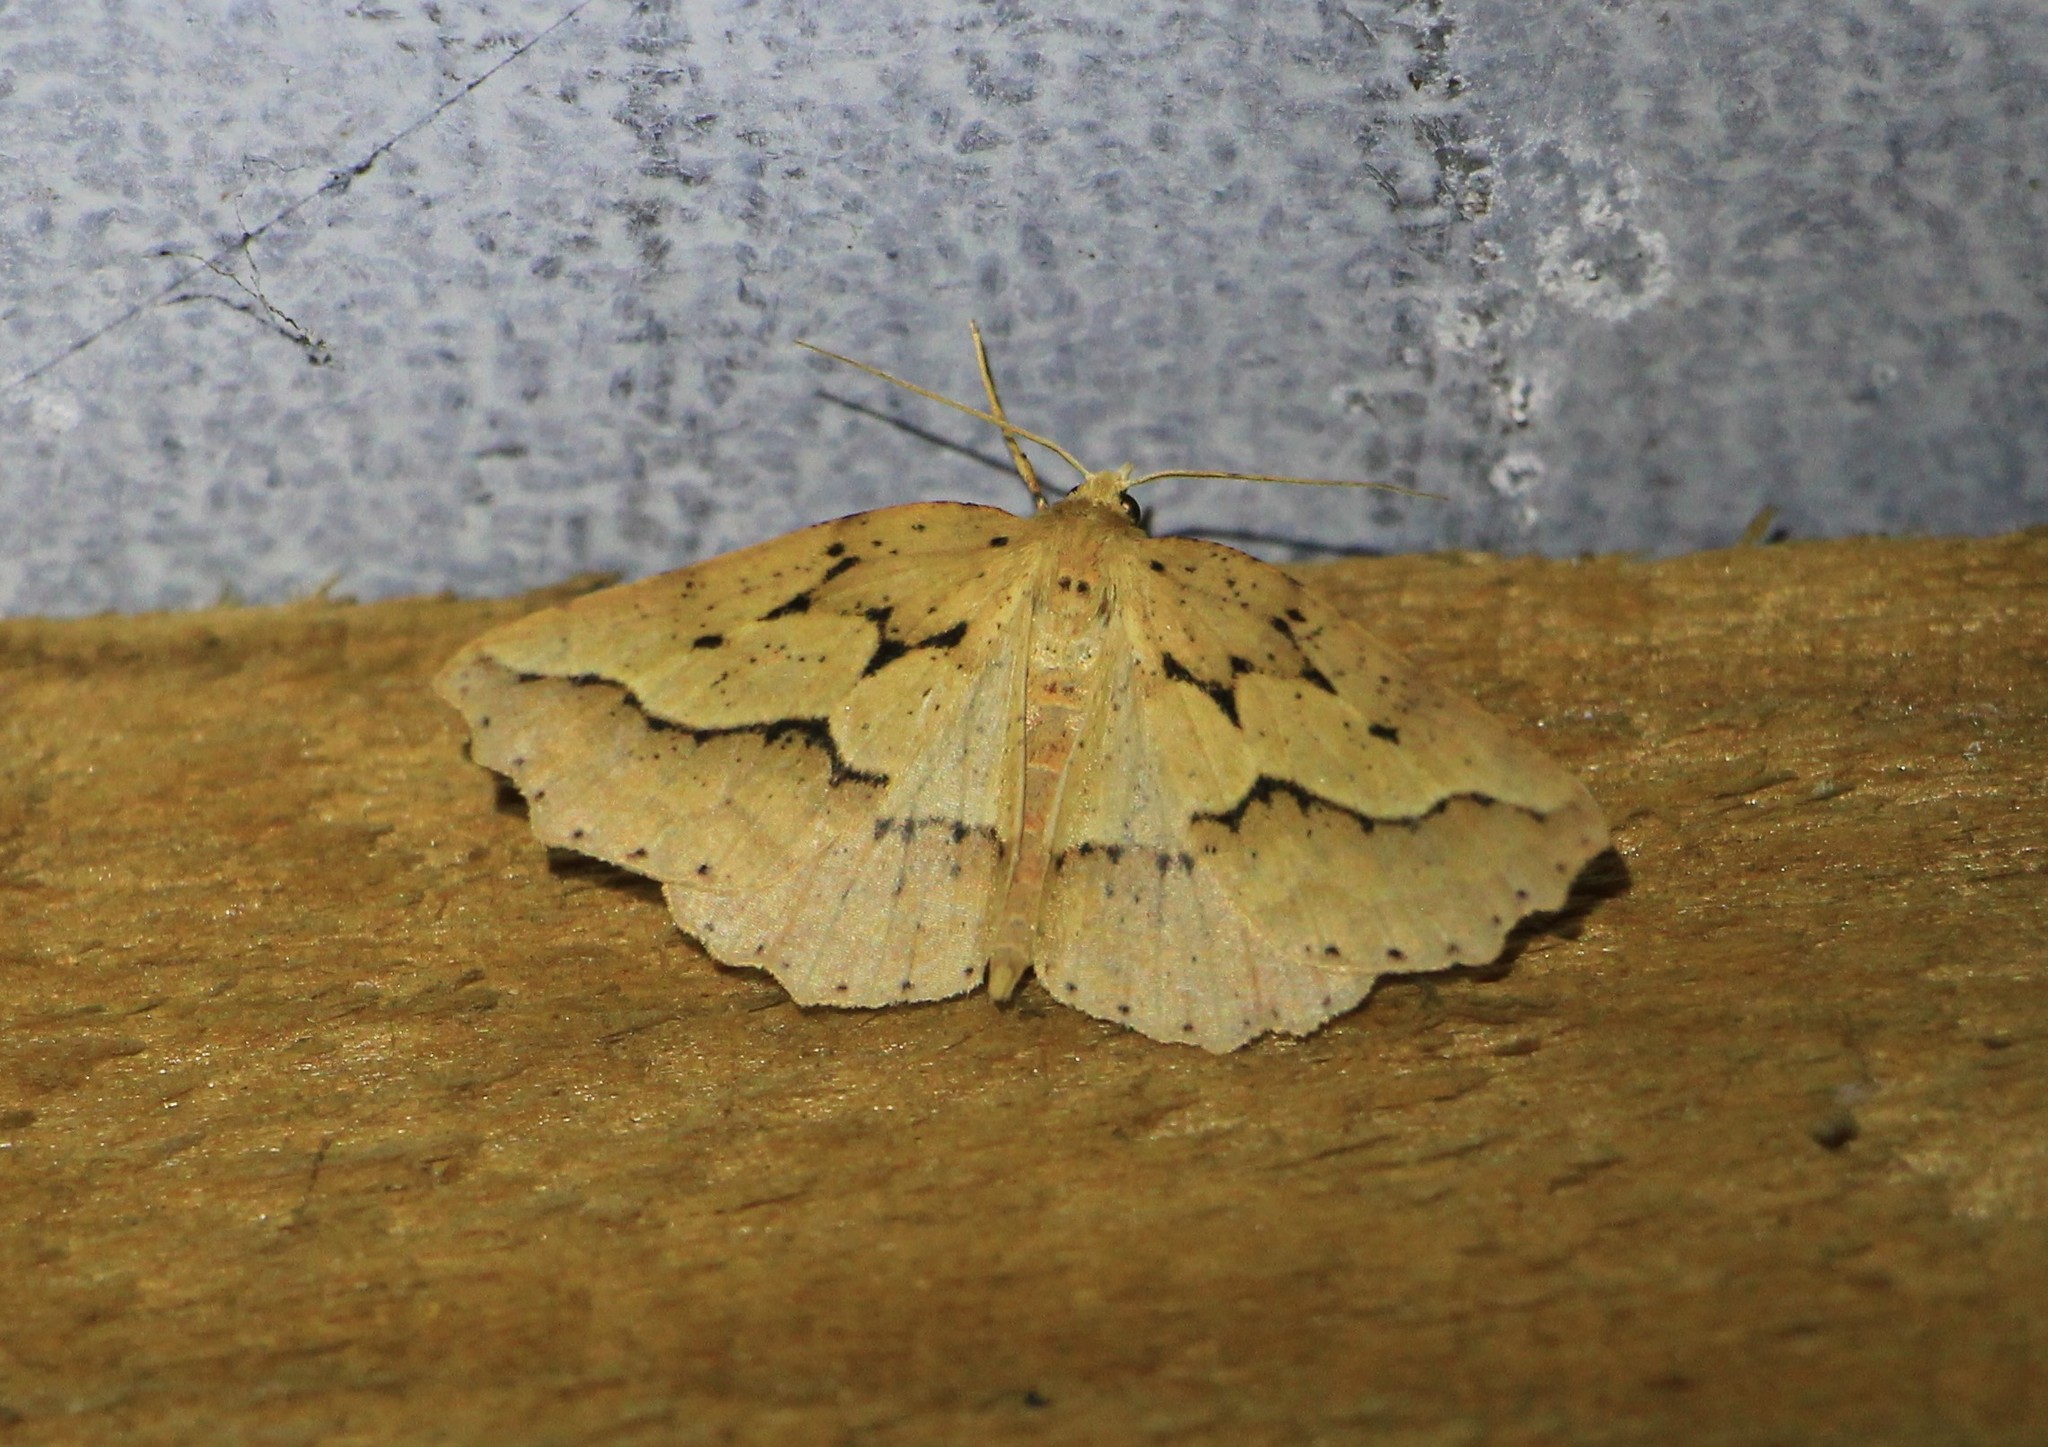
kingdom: Animalia
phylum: Arthropoda
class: Insecta
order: Lepidoptera
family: Geometridae
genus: Ischalis
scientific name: Ischalis variabilis
